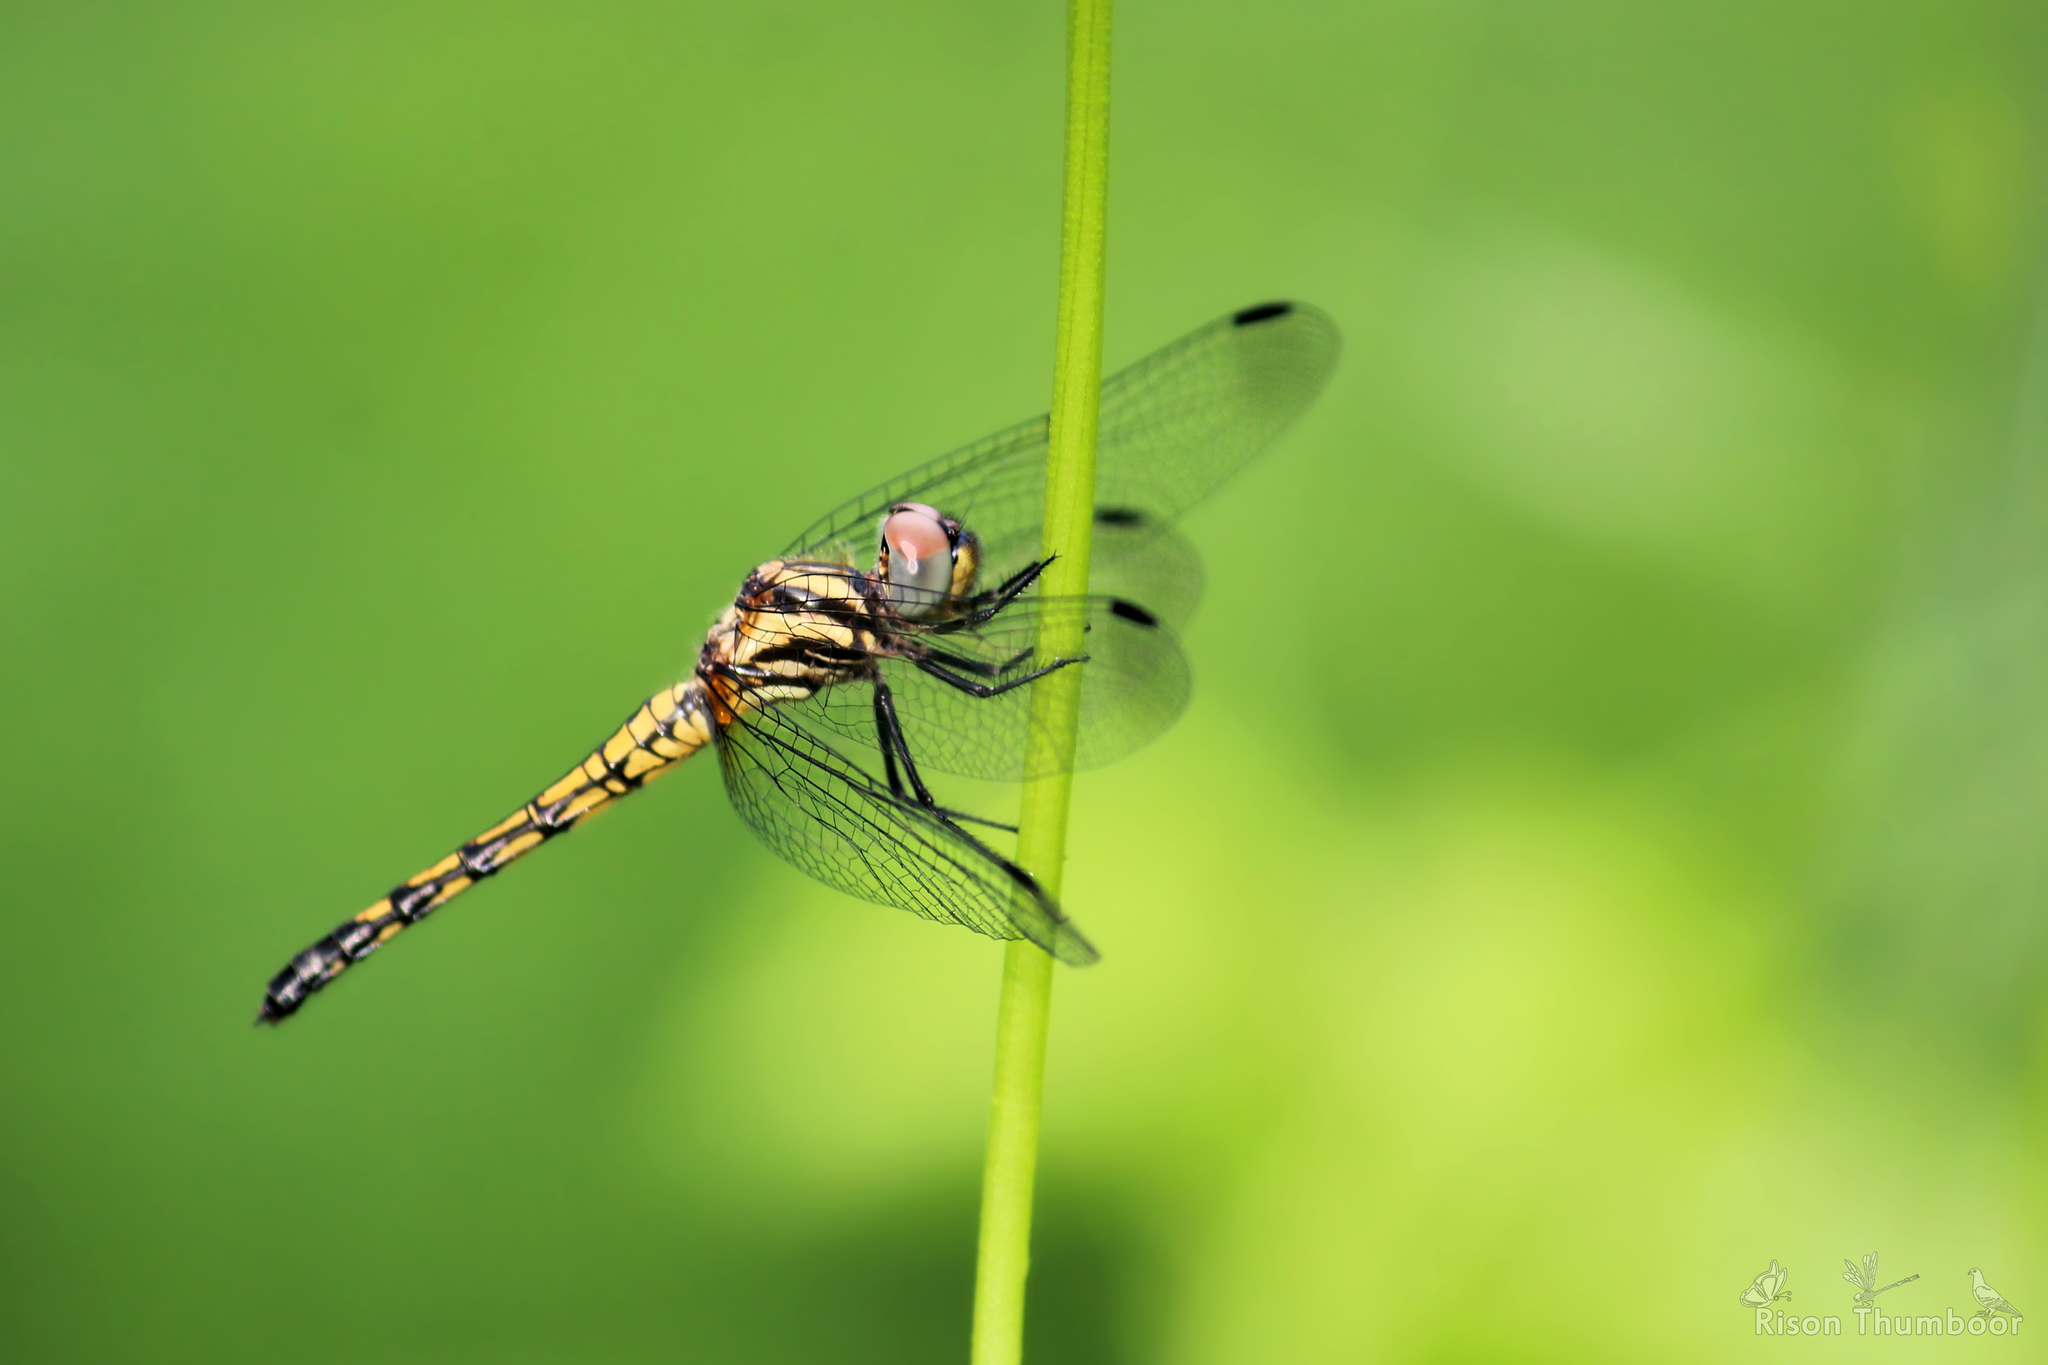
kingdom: Animalia
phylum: Arthropoda
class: Insecta
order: Odonata
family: Libellulidae
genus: Trithemis
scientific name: Trithemis festiva
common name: Indigo dropwing
